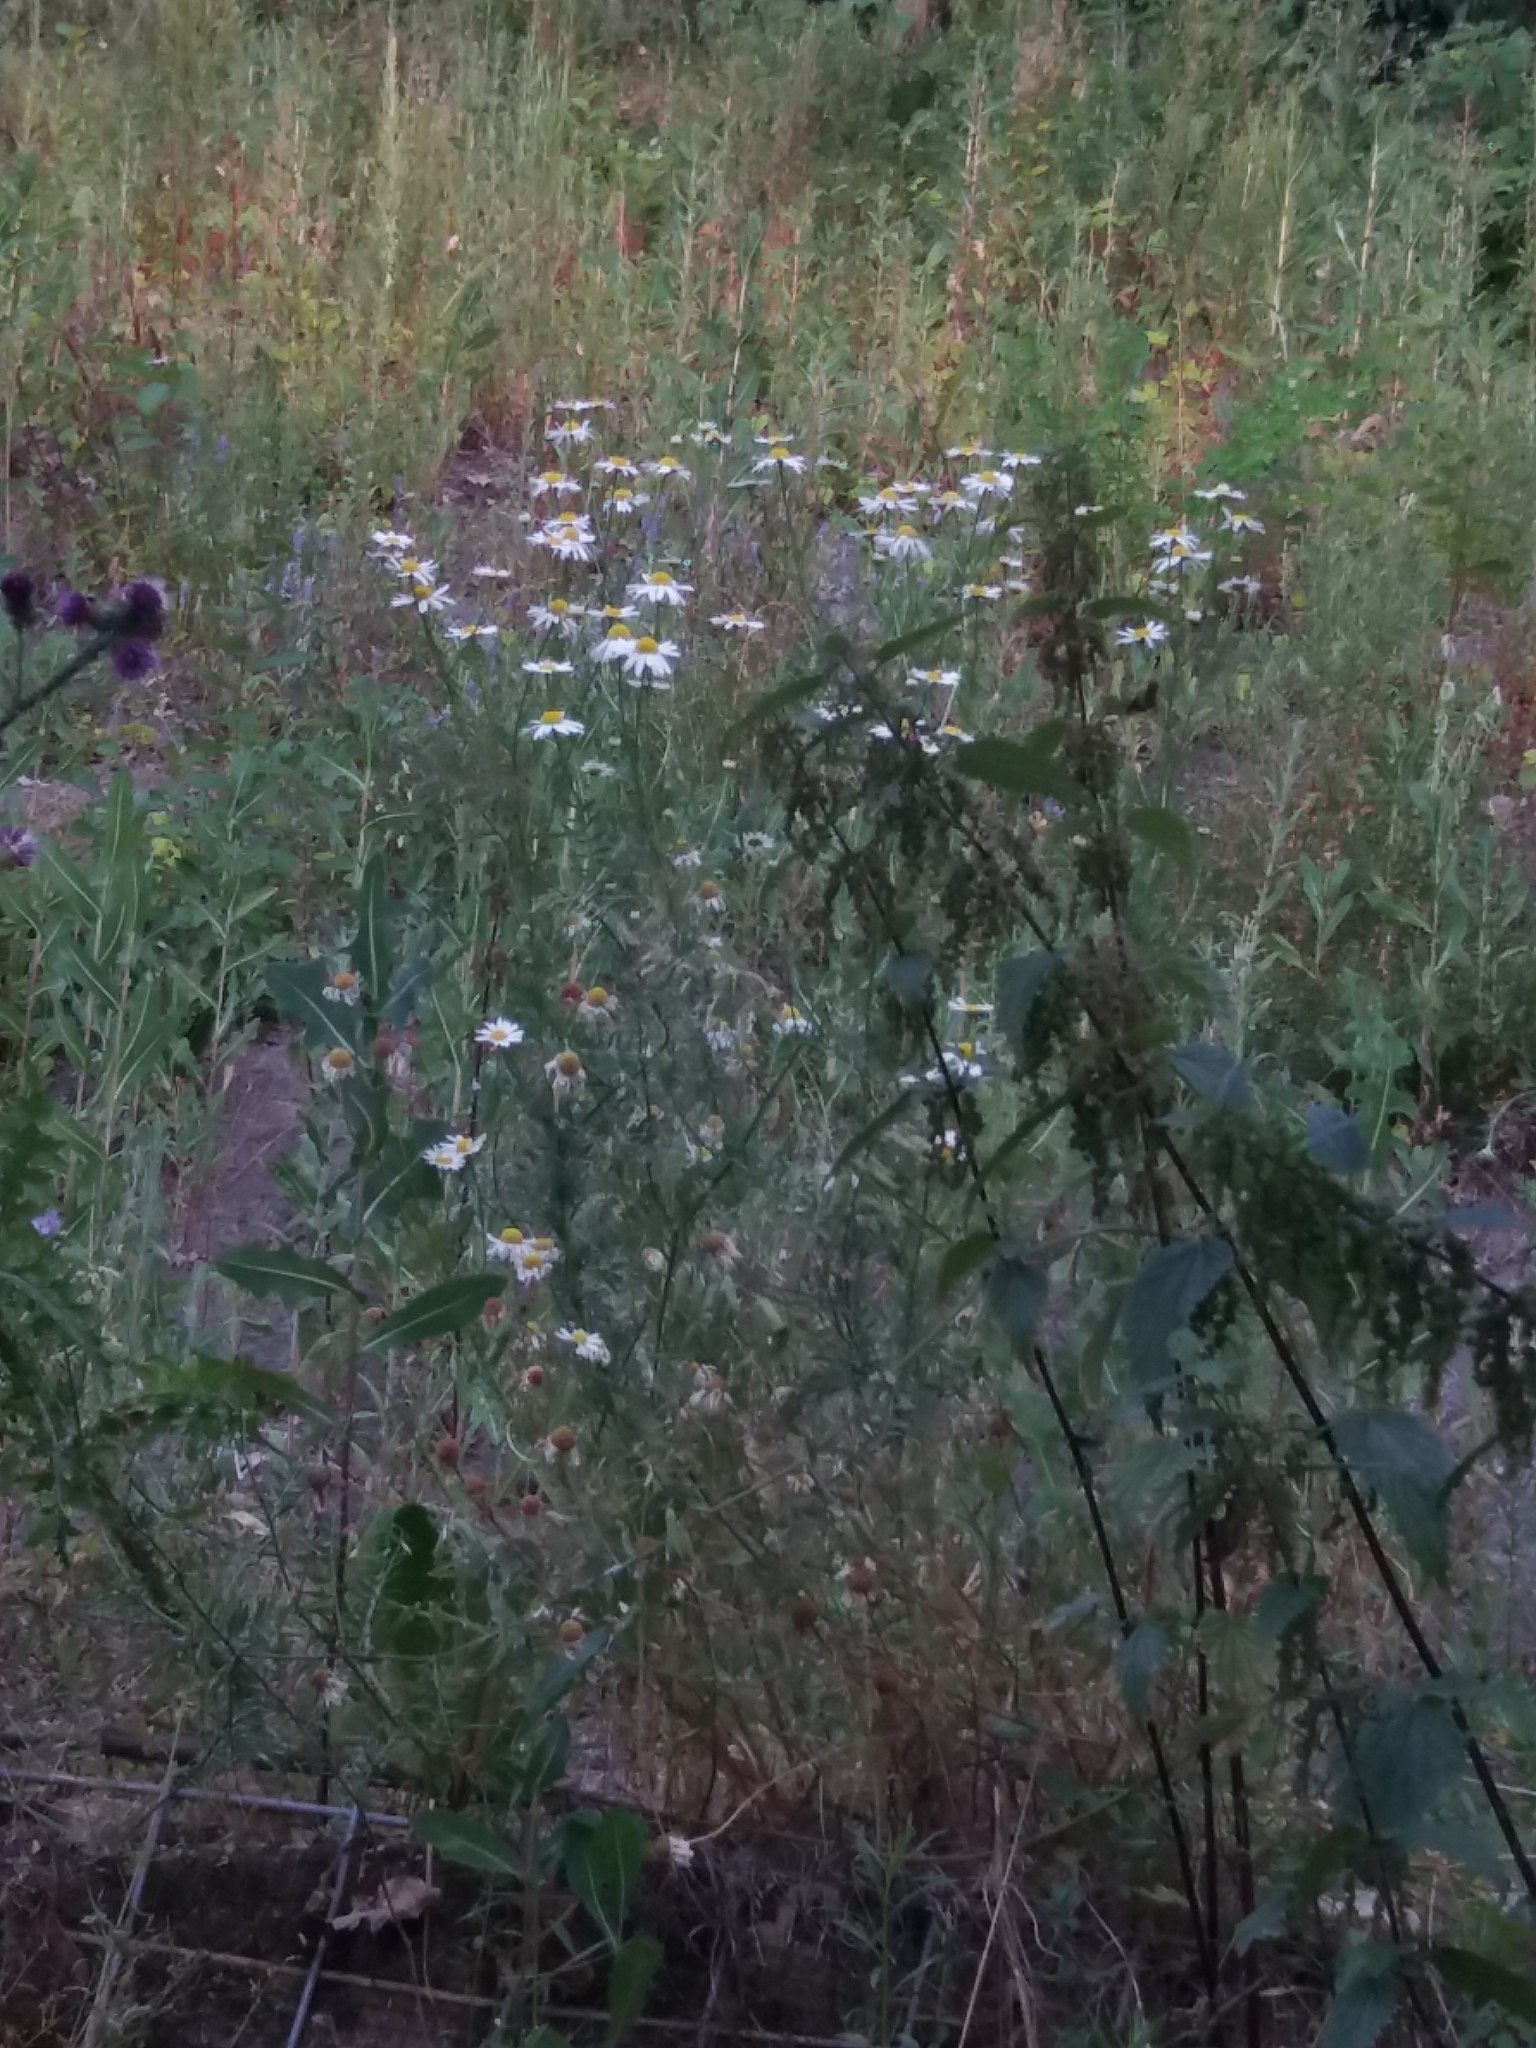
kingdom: Plantae
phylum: Tracheophyta
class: Magnoliopsida
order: Asterales
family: Asteraceae
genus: Tripleurospermum
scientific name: Tripleurospermum inodorum
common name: Scentless mayweed
